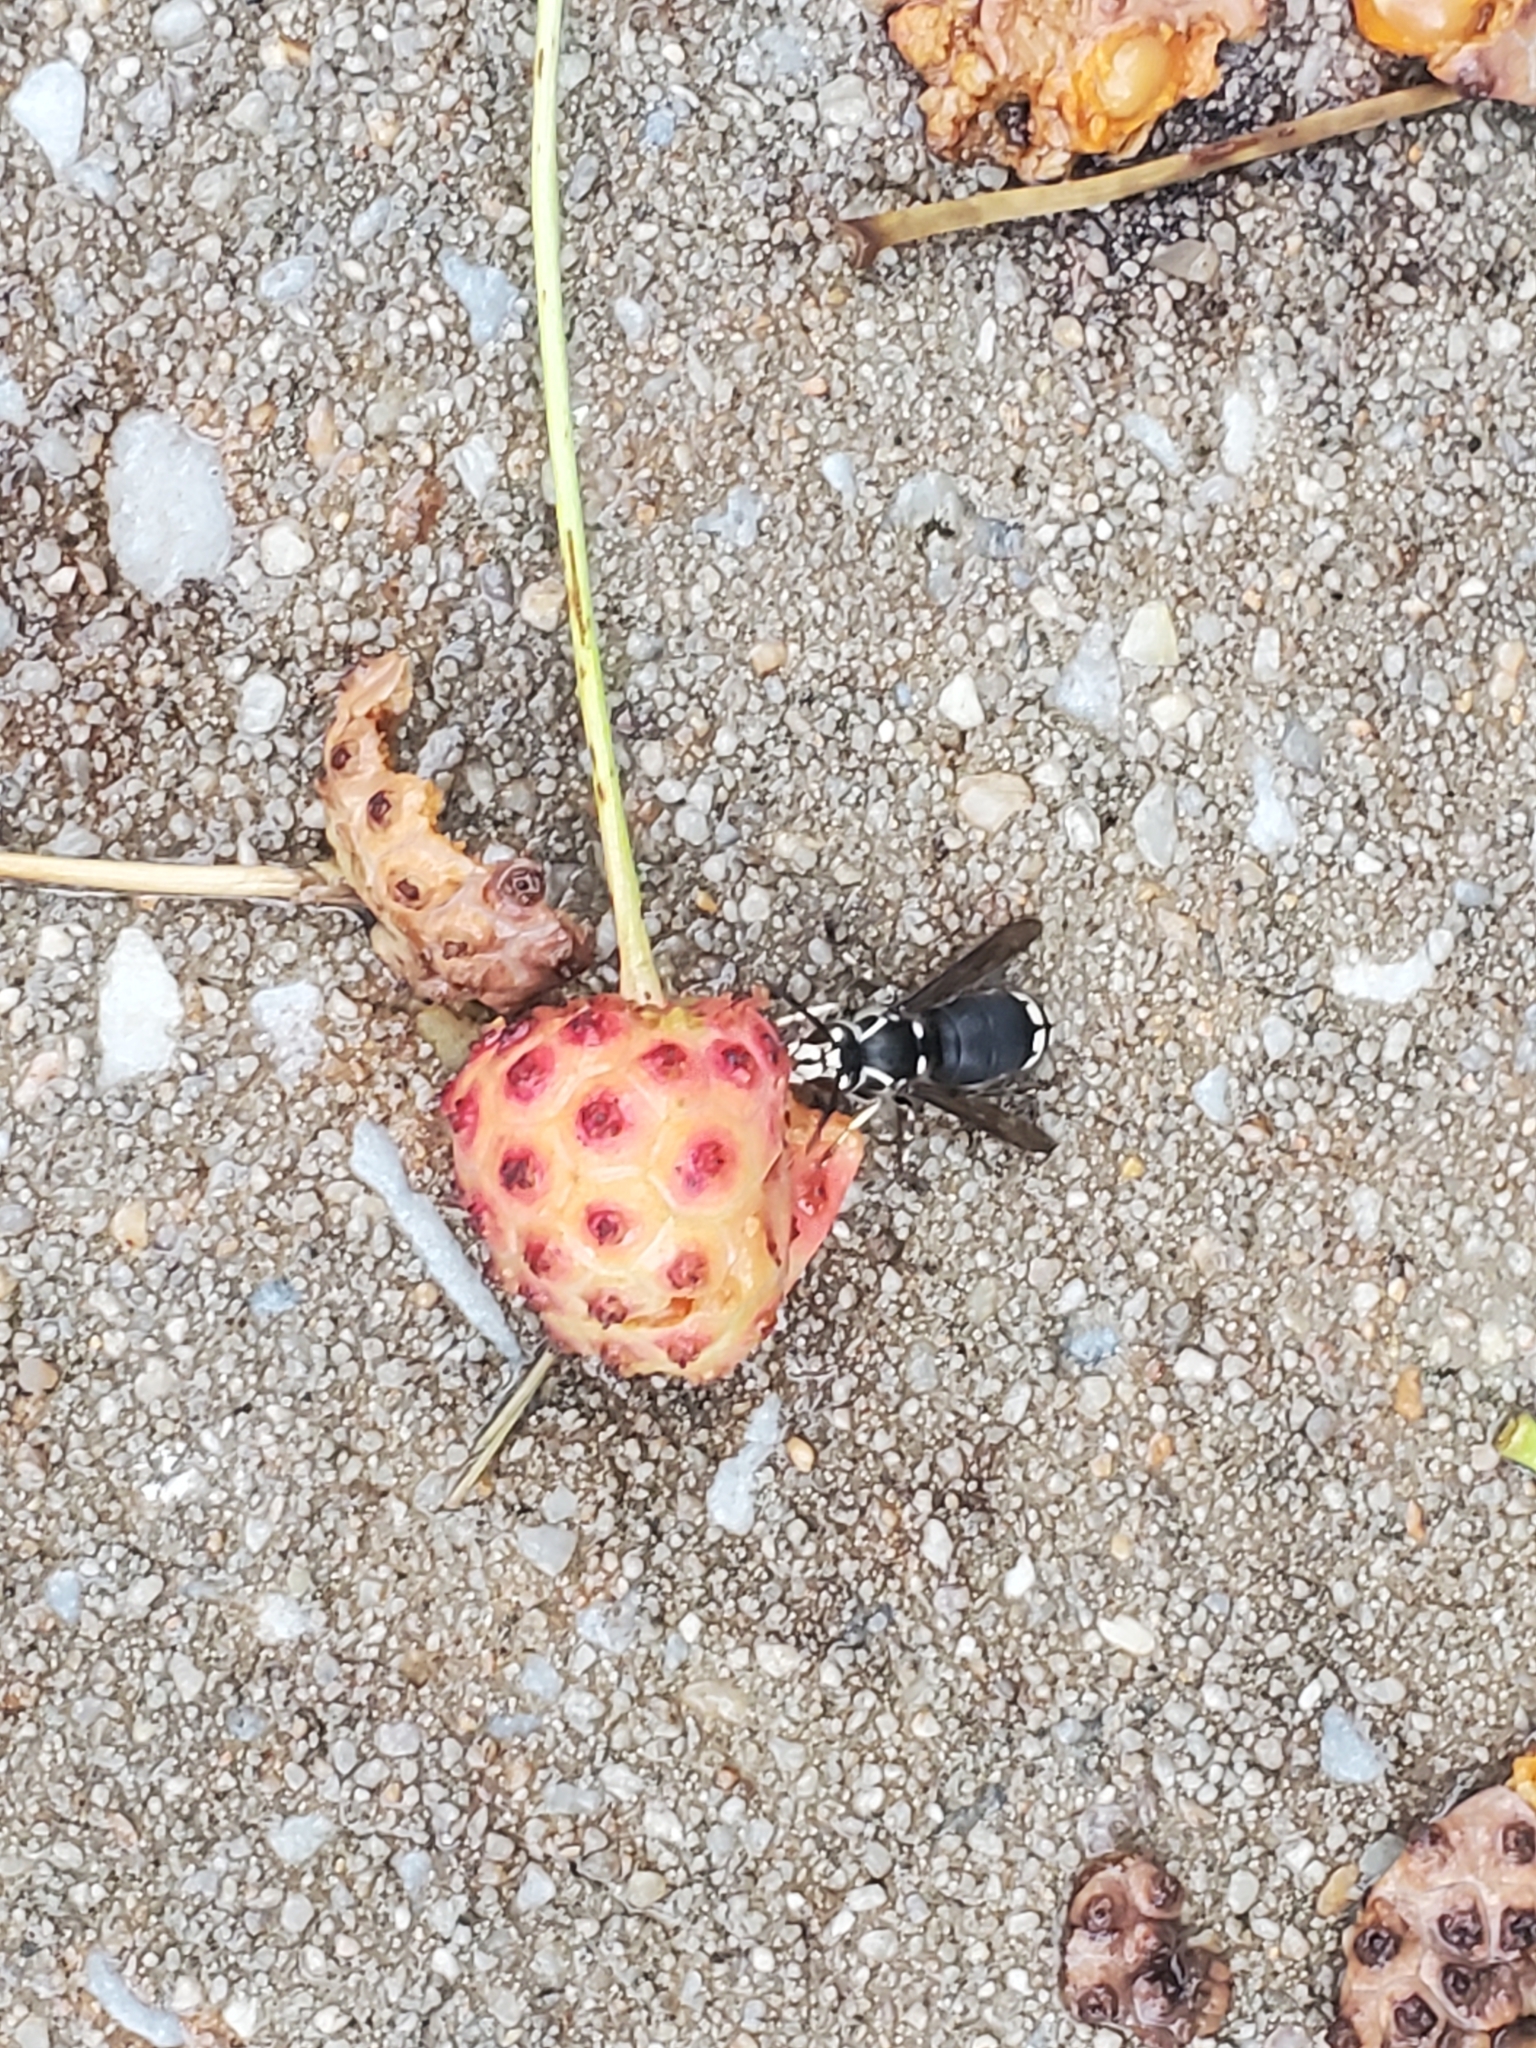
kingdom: Animalia
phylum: Arthropoda
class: Insecta
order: Hymenoptera
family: Vespidae
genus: Dolichovespula
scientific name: Dolichovespula maculata
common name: Bald-faced hornet
